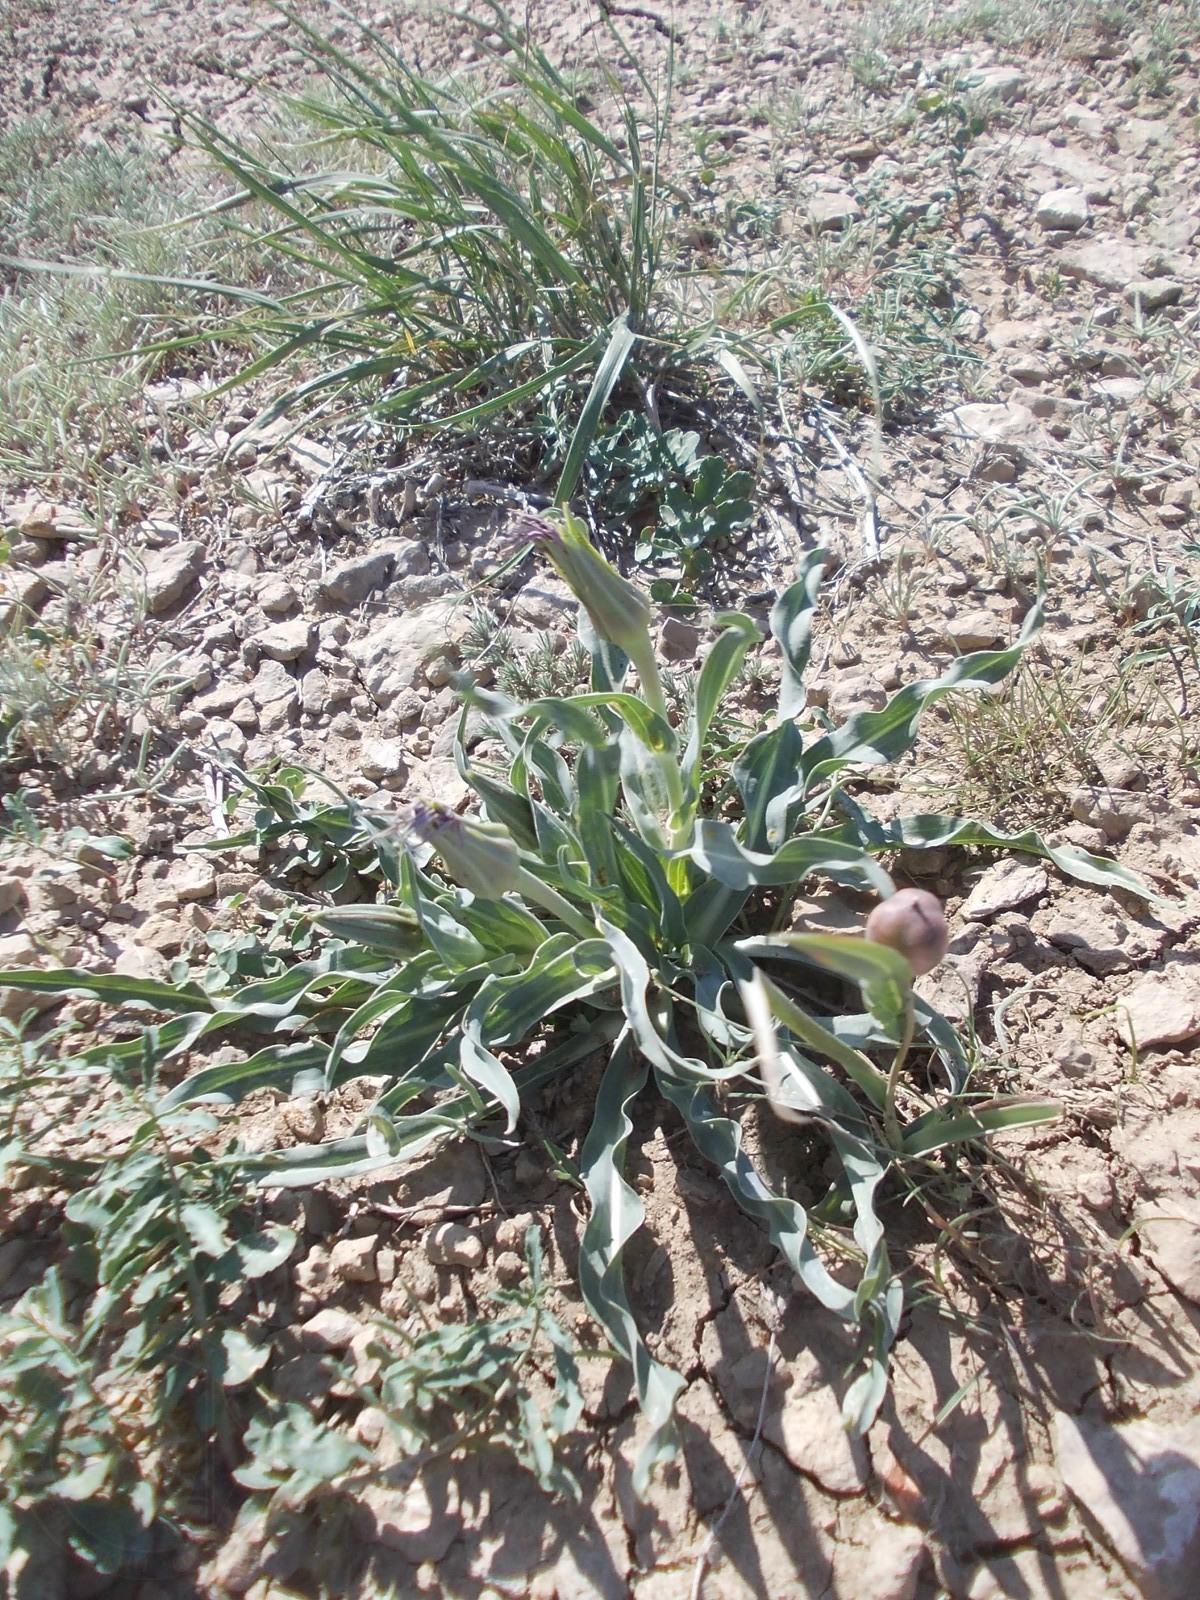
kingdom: Plantae
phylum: Tracheophyta
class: Magnoliopsida
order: Asterales
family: Asteraceae
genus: Tragopogon
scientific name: Tragopogon marginifolius
